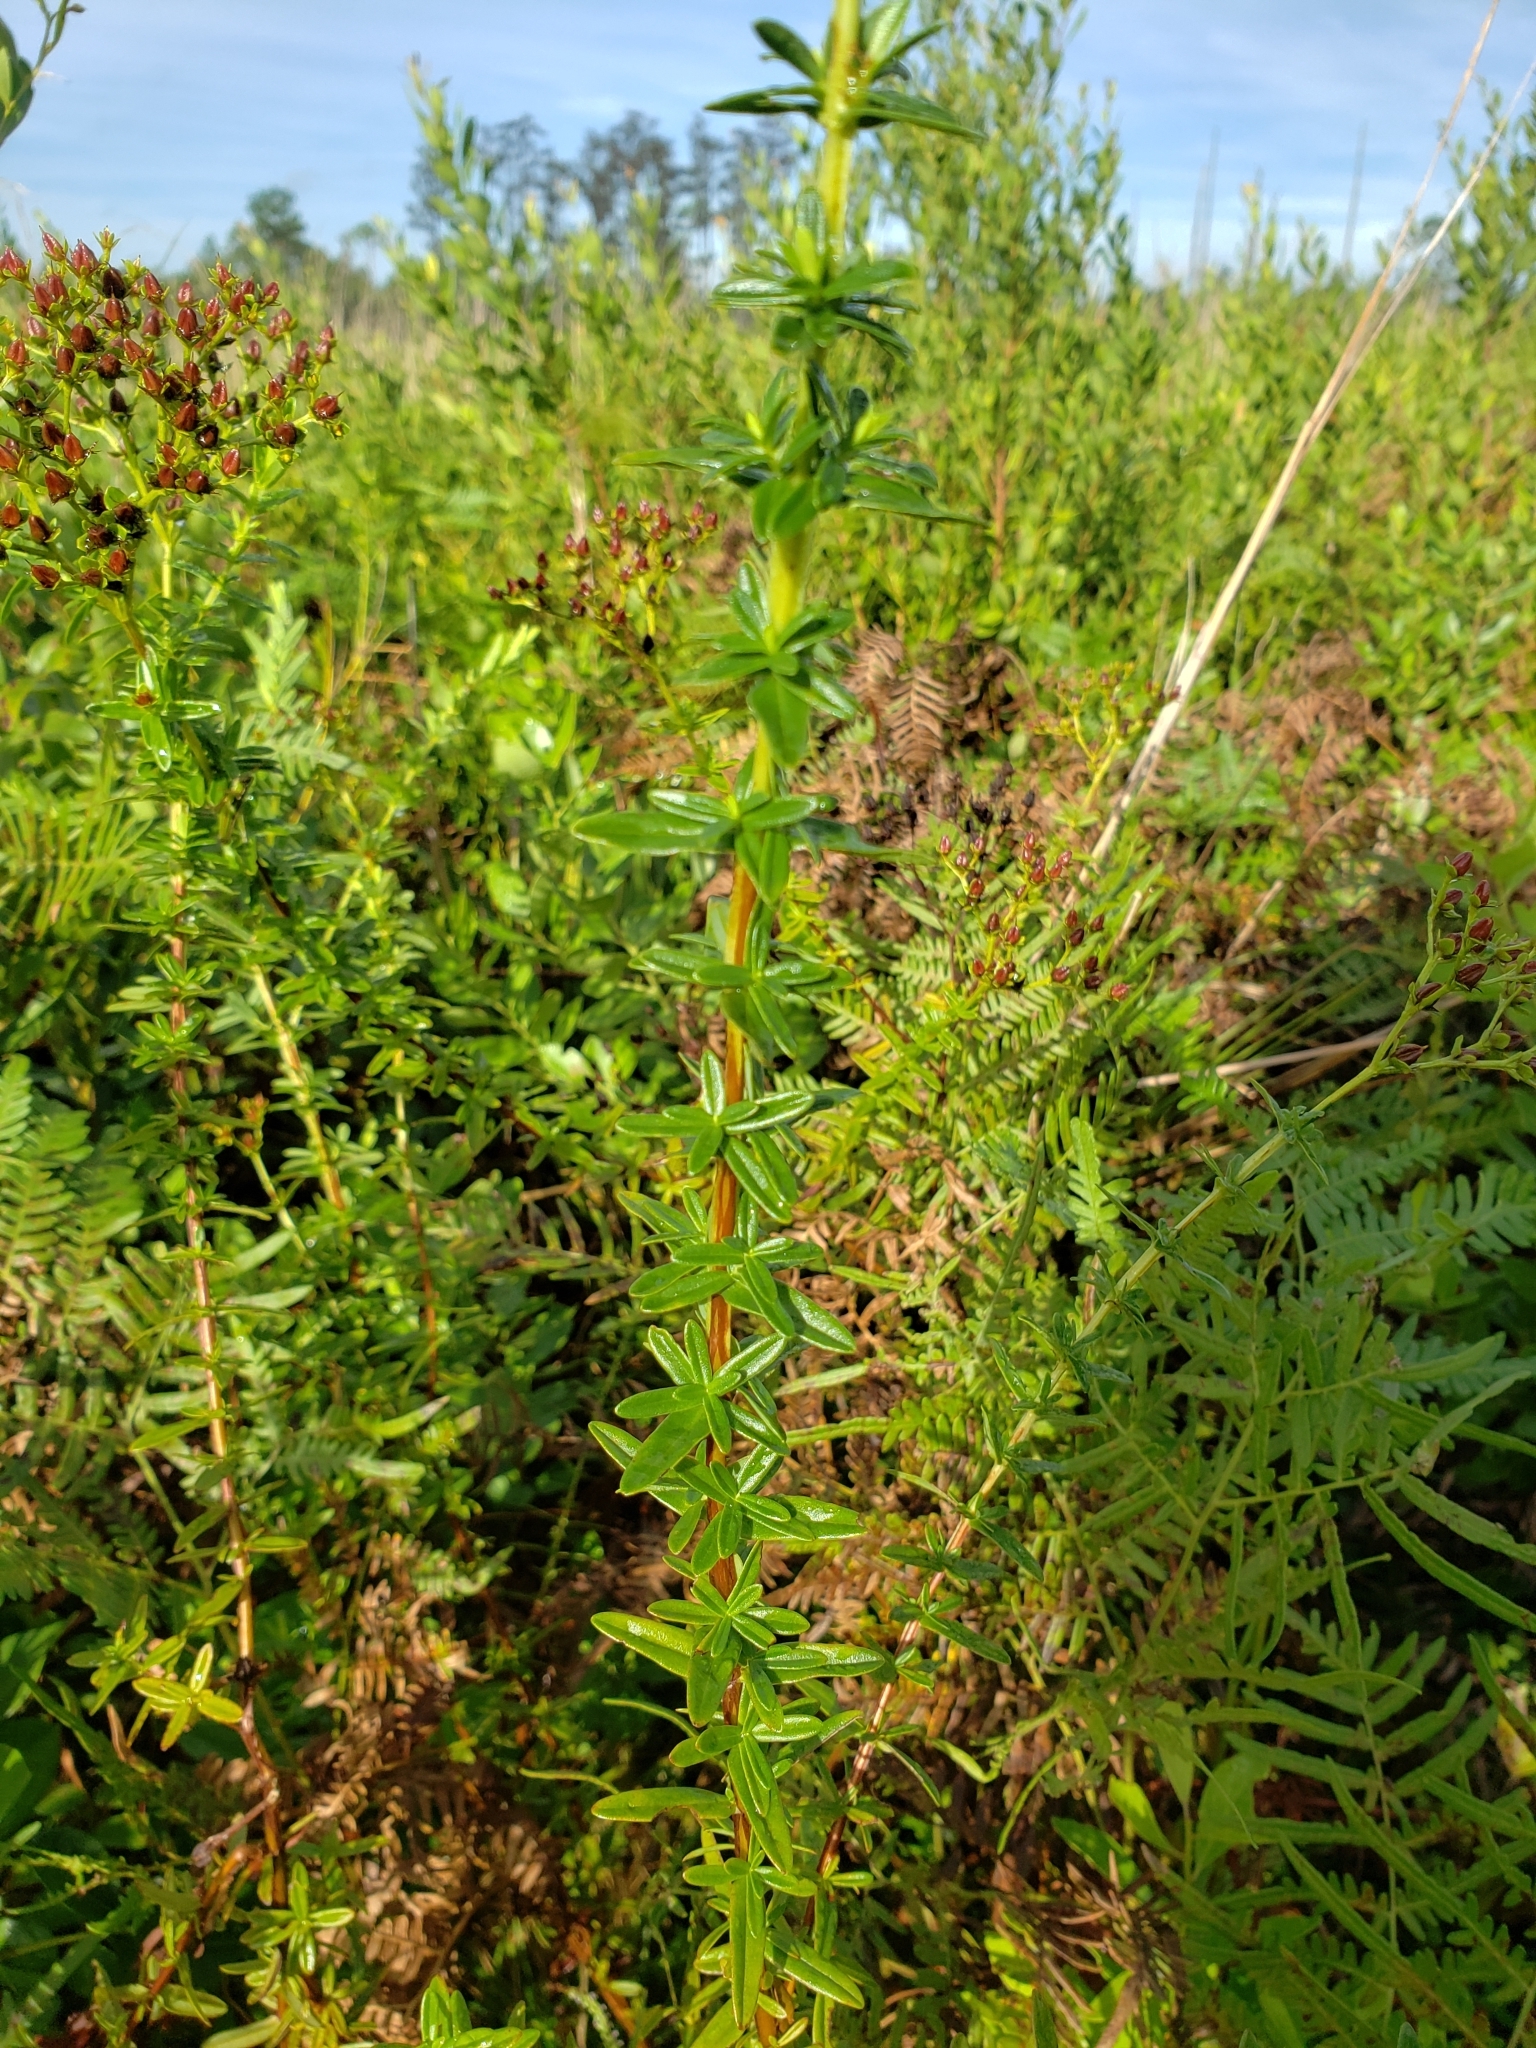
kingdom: Plantae
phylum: Tracheophyta
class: Magnoliopsida
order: Malpighiales
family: Hypericaceae
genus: Hypericum
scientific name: Hypericum cistifolium
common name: Round-pod st. john's-wort
